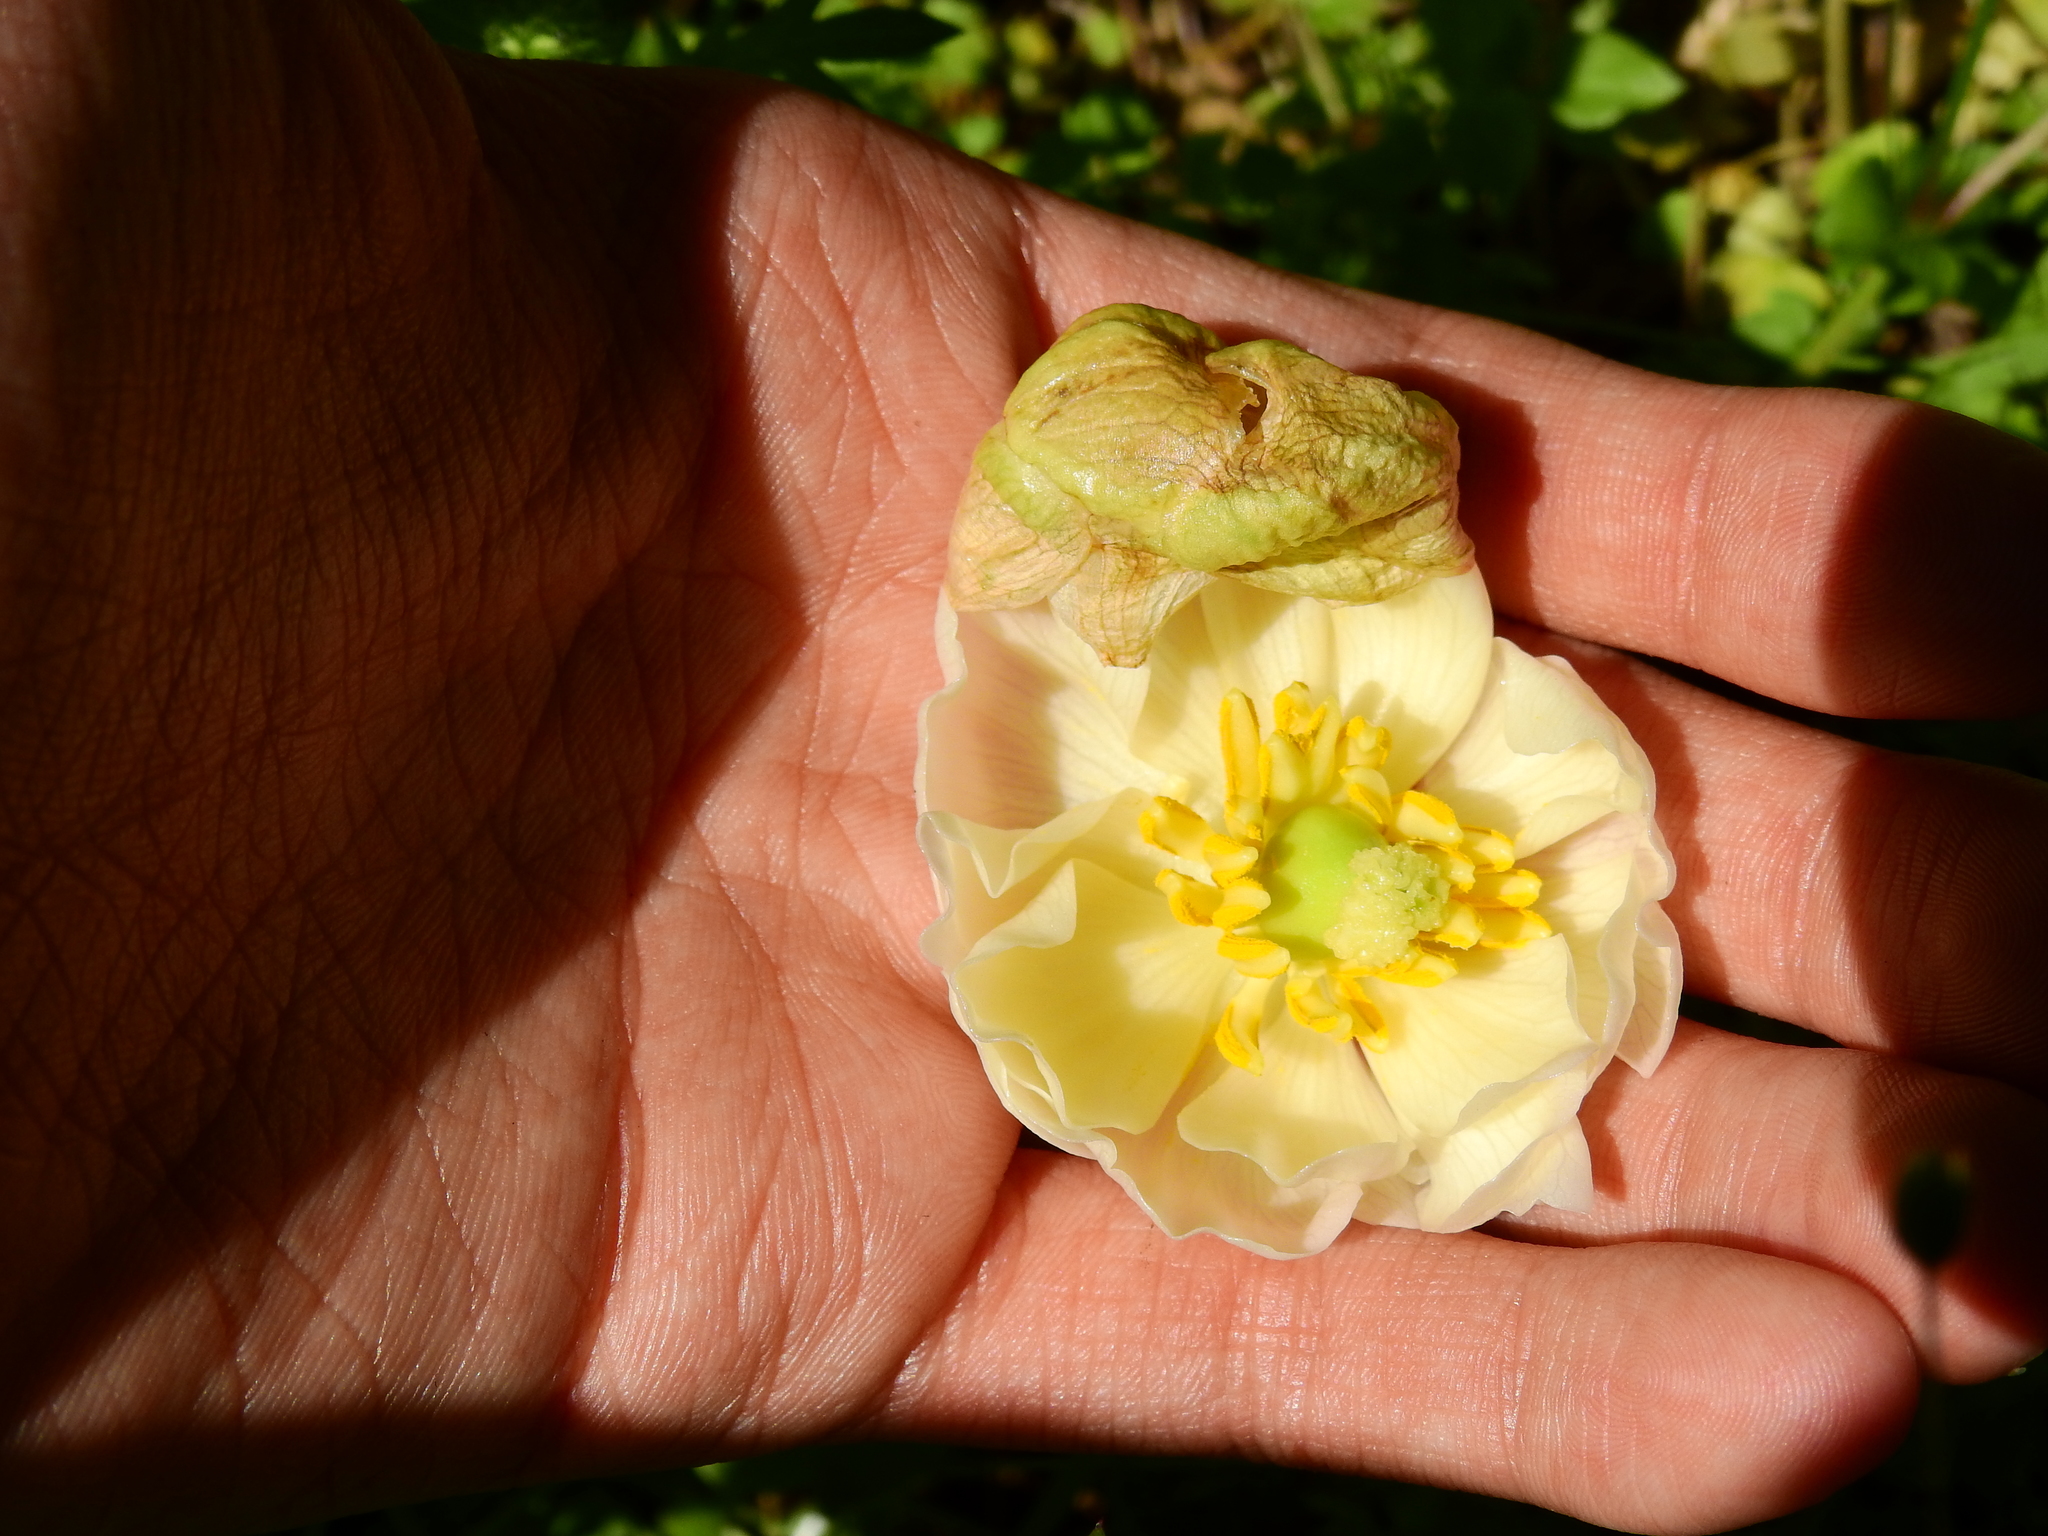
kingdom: Plantae
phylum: Tracheophyta
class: Magnoliopsida
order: Ranunculales
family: Berberidaceae
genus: Podophyllum
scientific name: Podophyllum peltatum
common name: Wild mandrake
